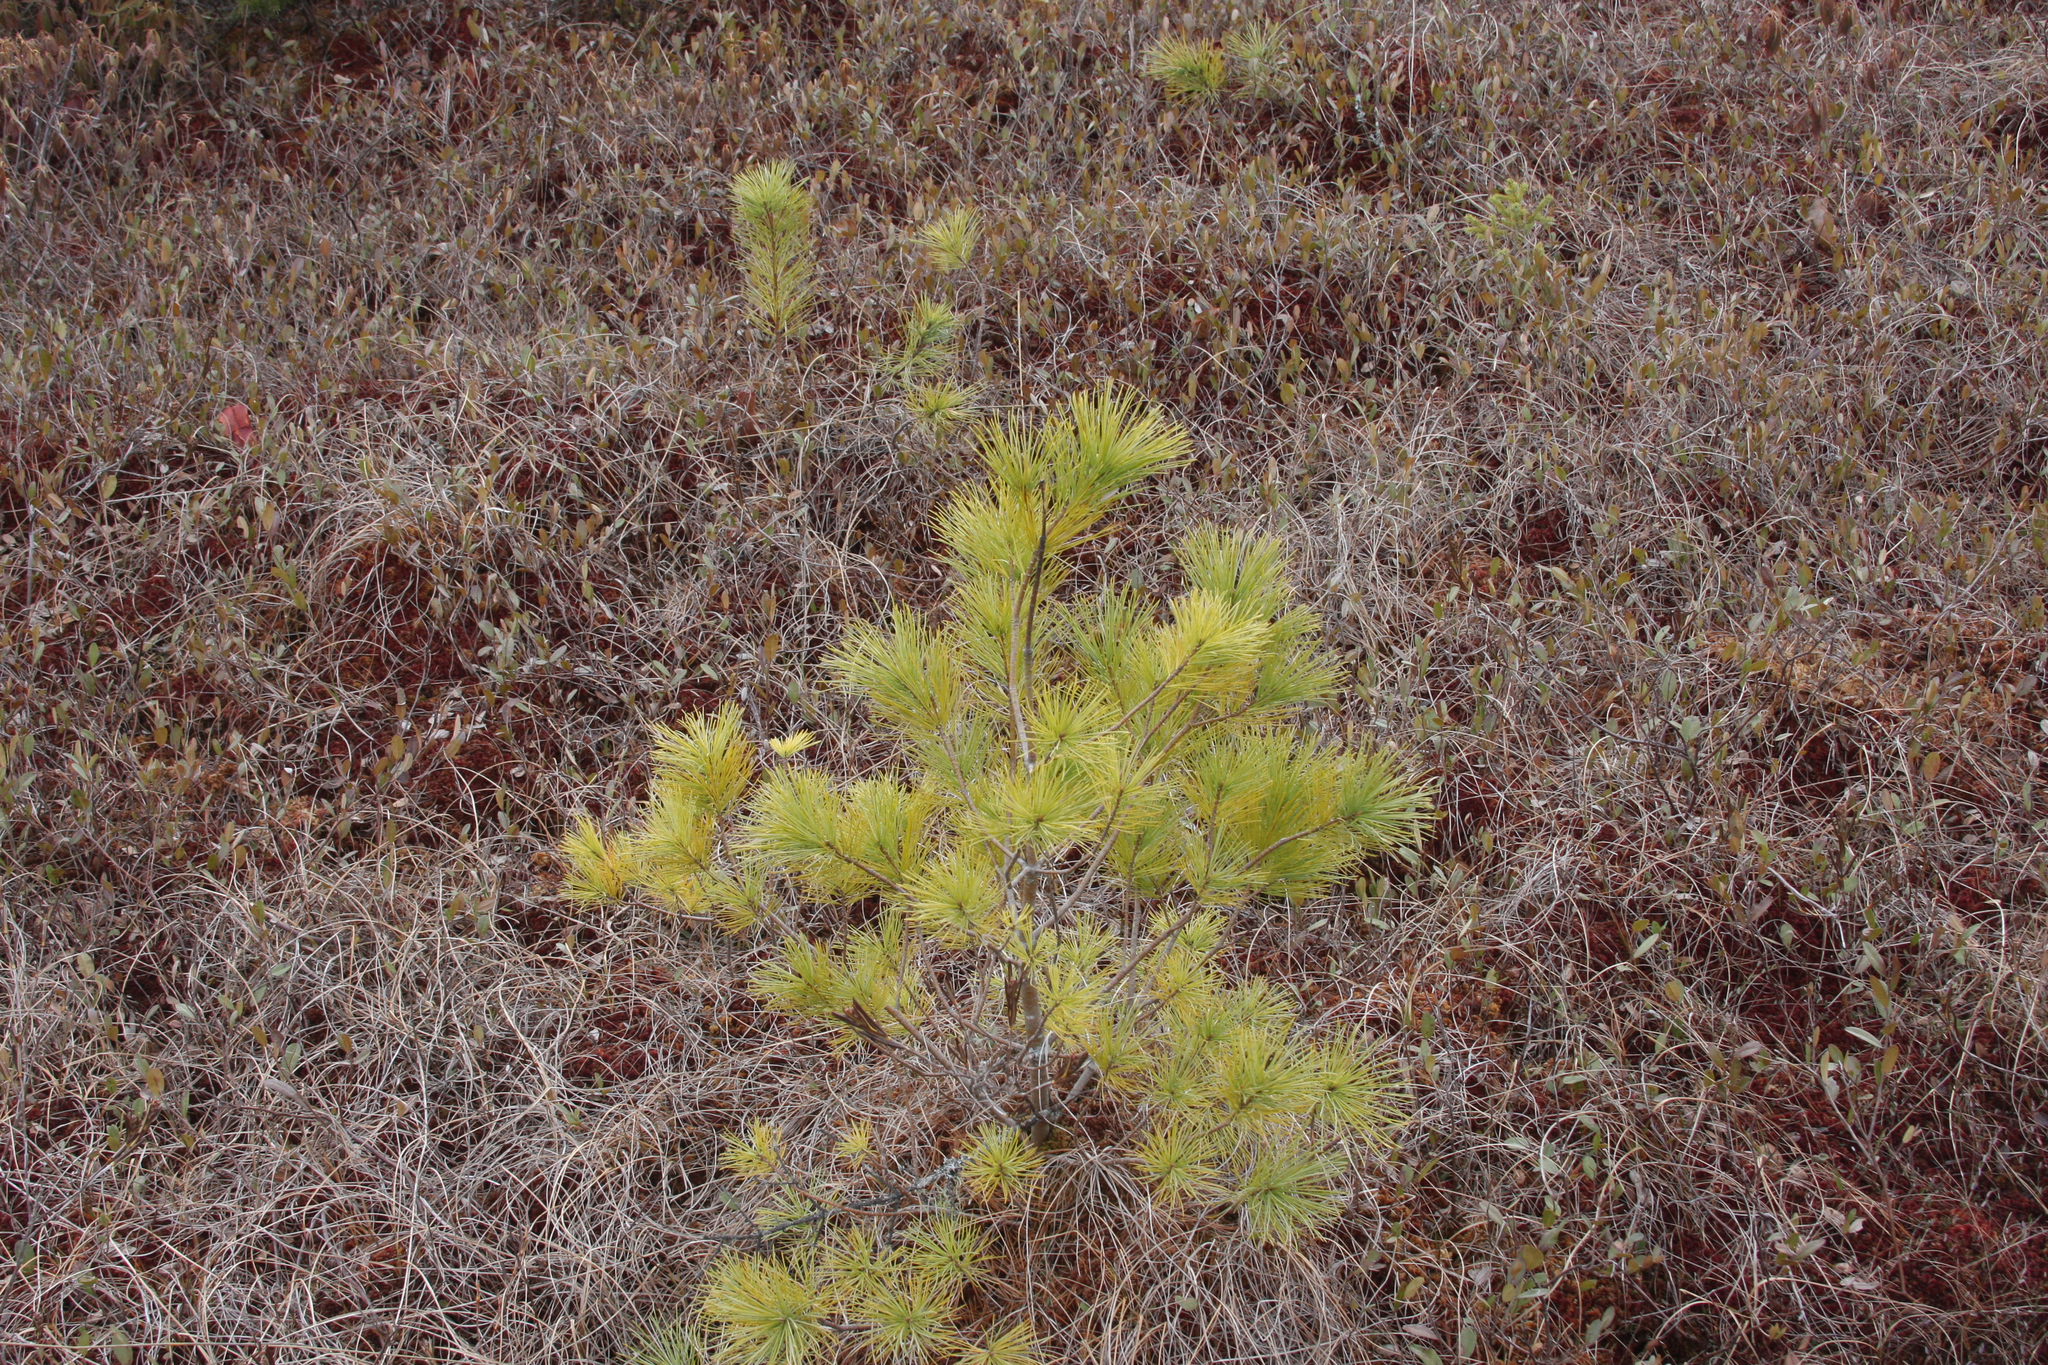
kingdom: Plantae
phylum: Tracheophyta
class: Pinopsida
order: Pinales
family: Pinaceae
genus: Pinus
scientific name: Pinus strobus
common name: Weymouth pine
